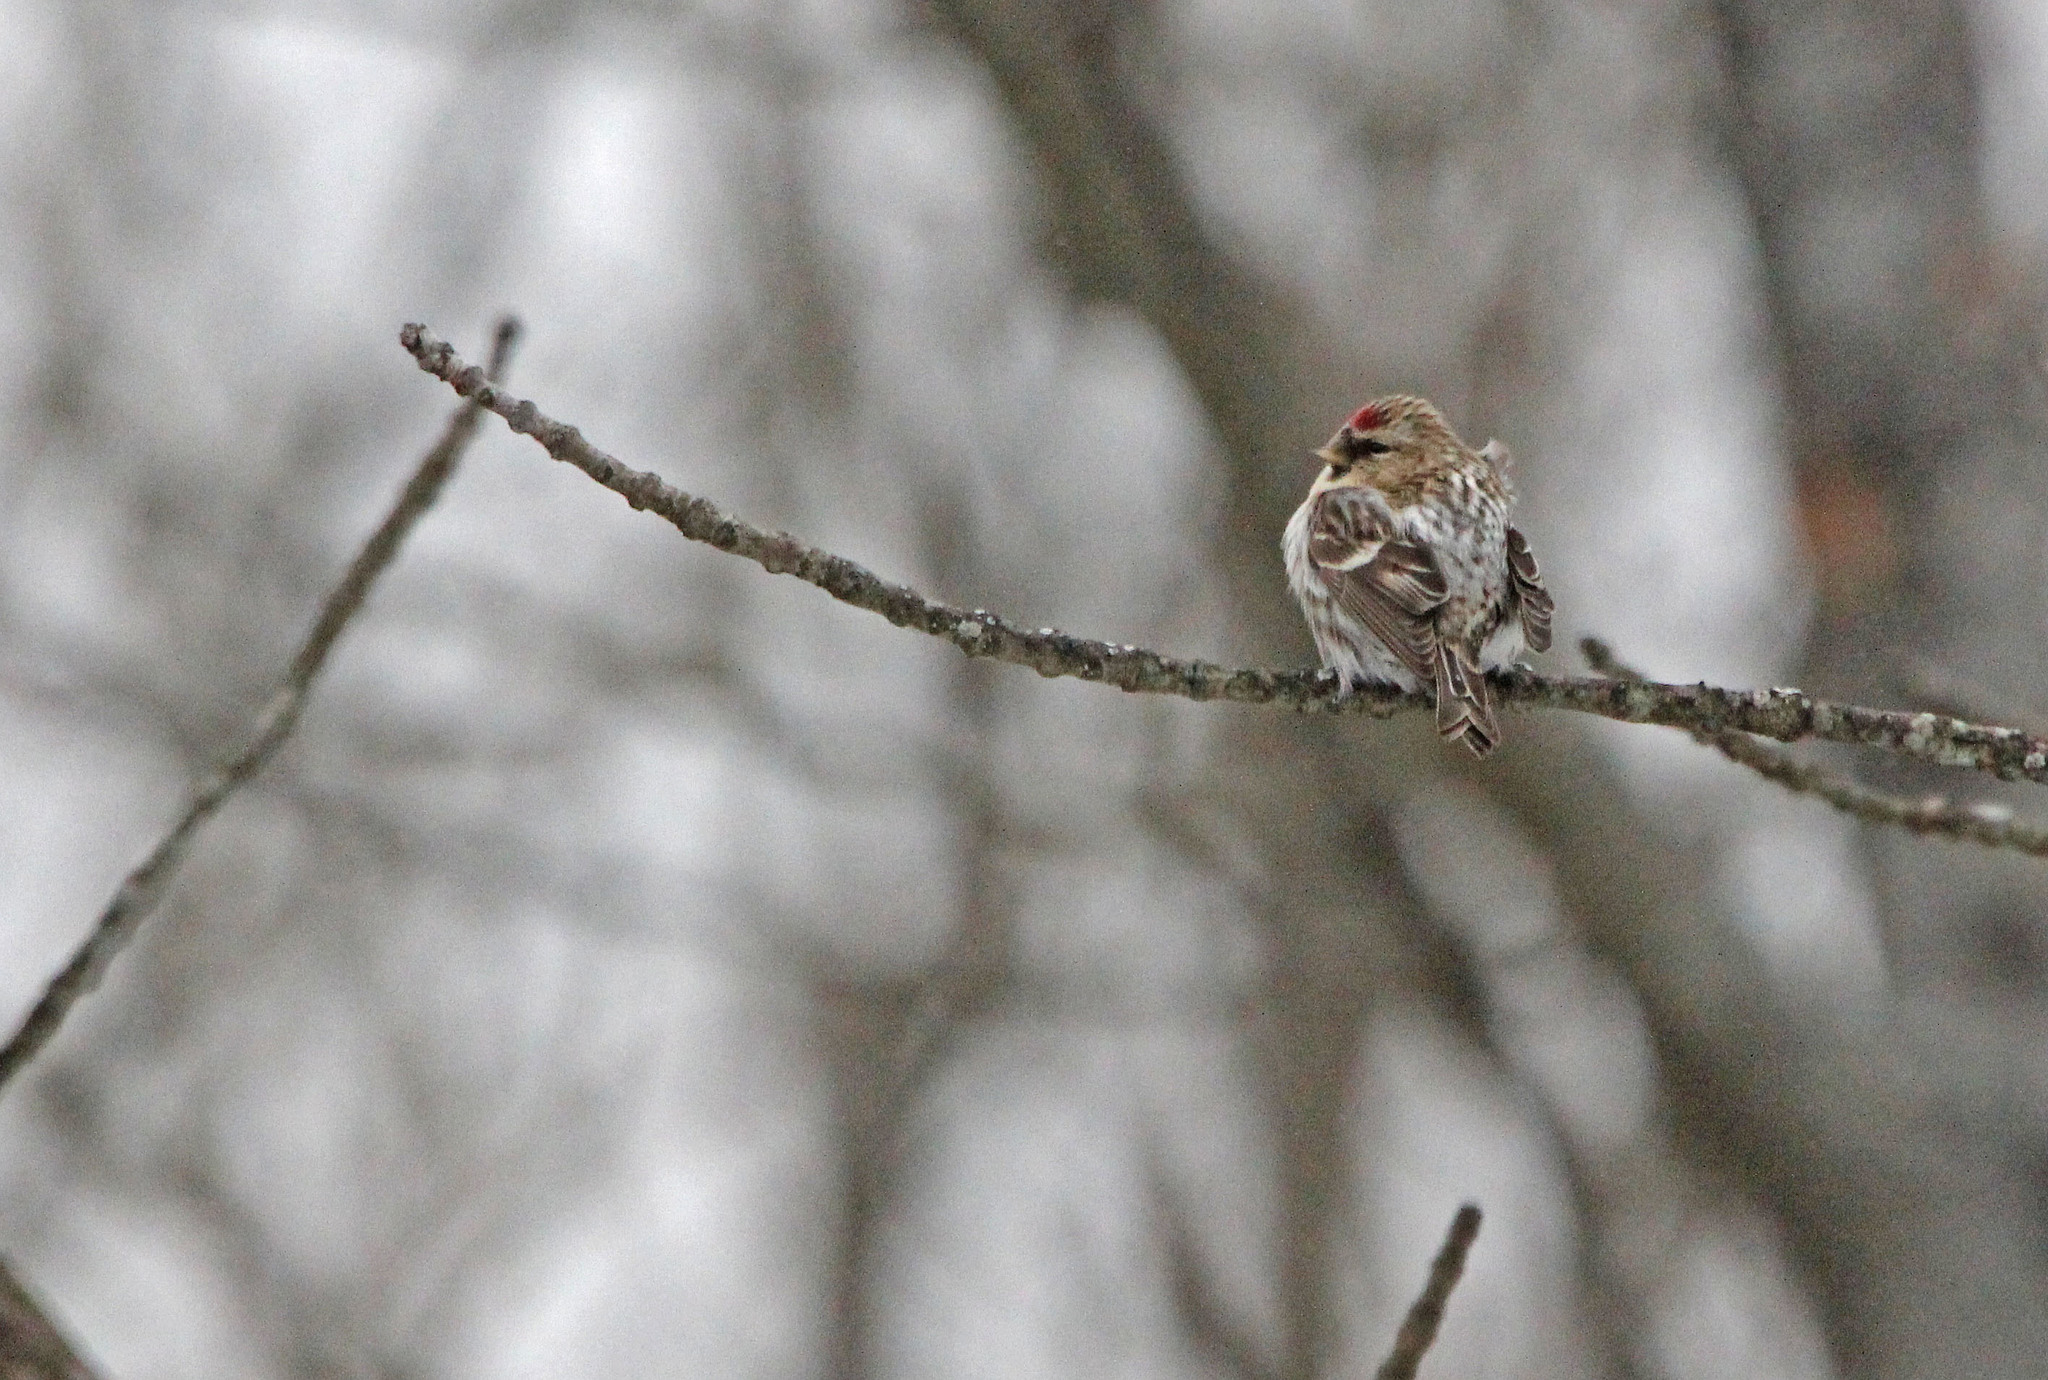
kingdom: Animalia
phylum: Chordata
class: Aves
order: Passeriformes
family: Fringillidae
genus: Acanthis
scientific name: Acanthis flammea
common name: Common redpoll
